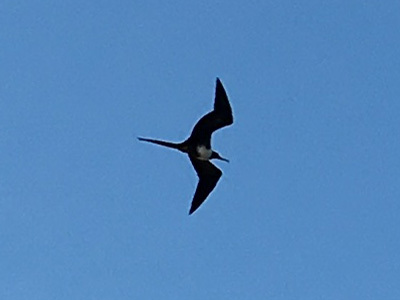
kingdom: Animalia
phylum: Chordata
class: Aves
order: Suliformes
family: Fregatidae
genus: Fregata
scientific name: Fregata magnificens
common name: Magnificent frigatebird
